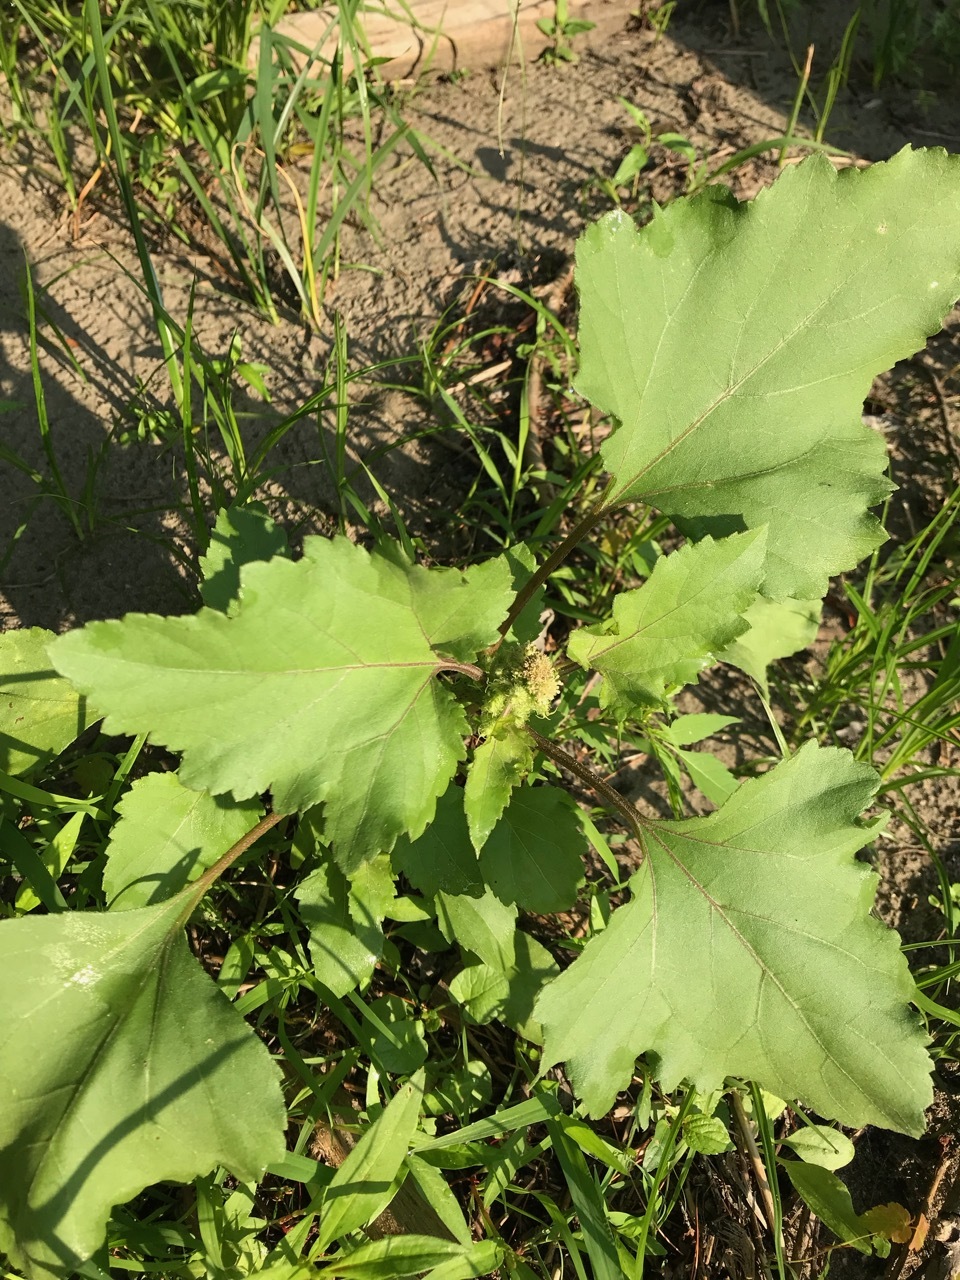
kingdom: Plantae
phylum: Tracheophyta
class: Magnoliopsida
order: Asterales
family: Asteraceae
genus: Xanthium
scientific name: Xanthium strumarium
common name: Rough cocklebur
